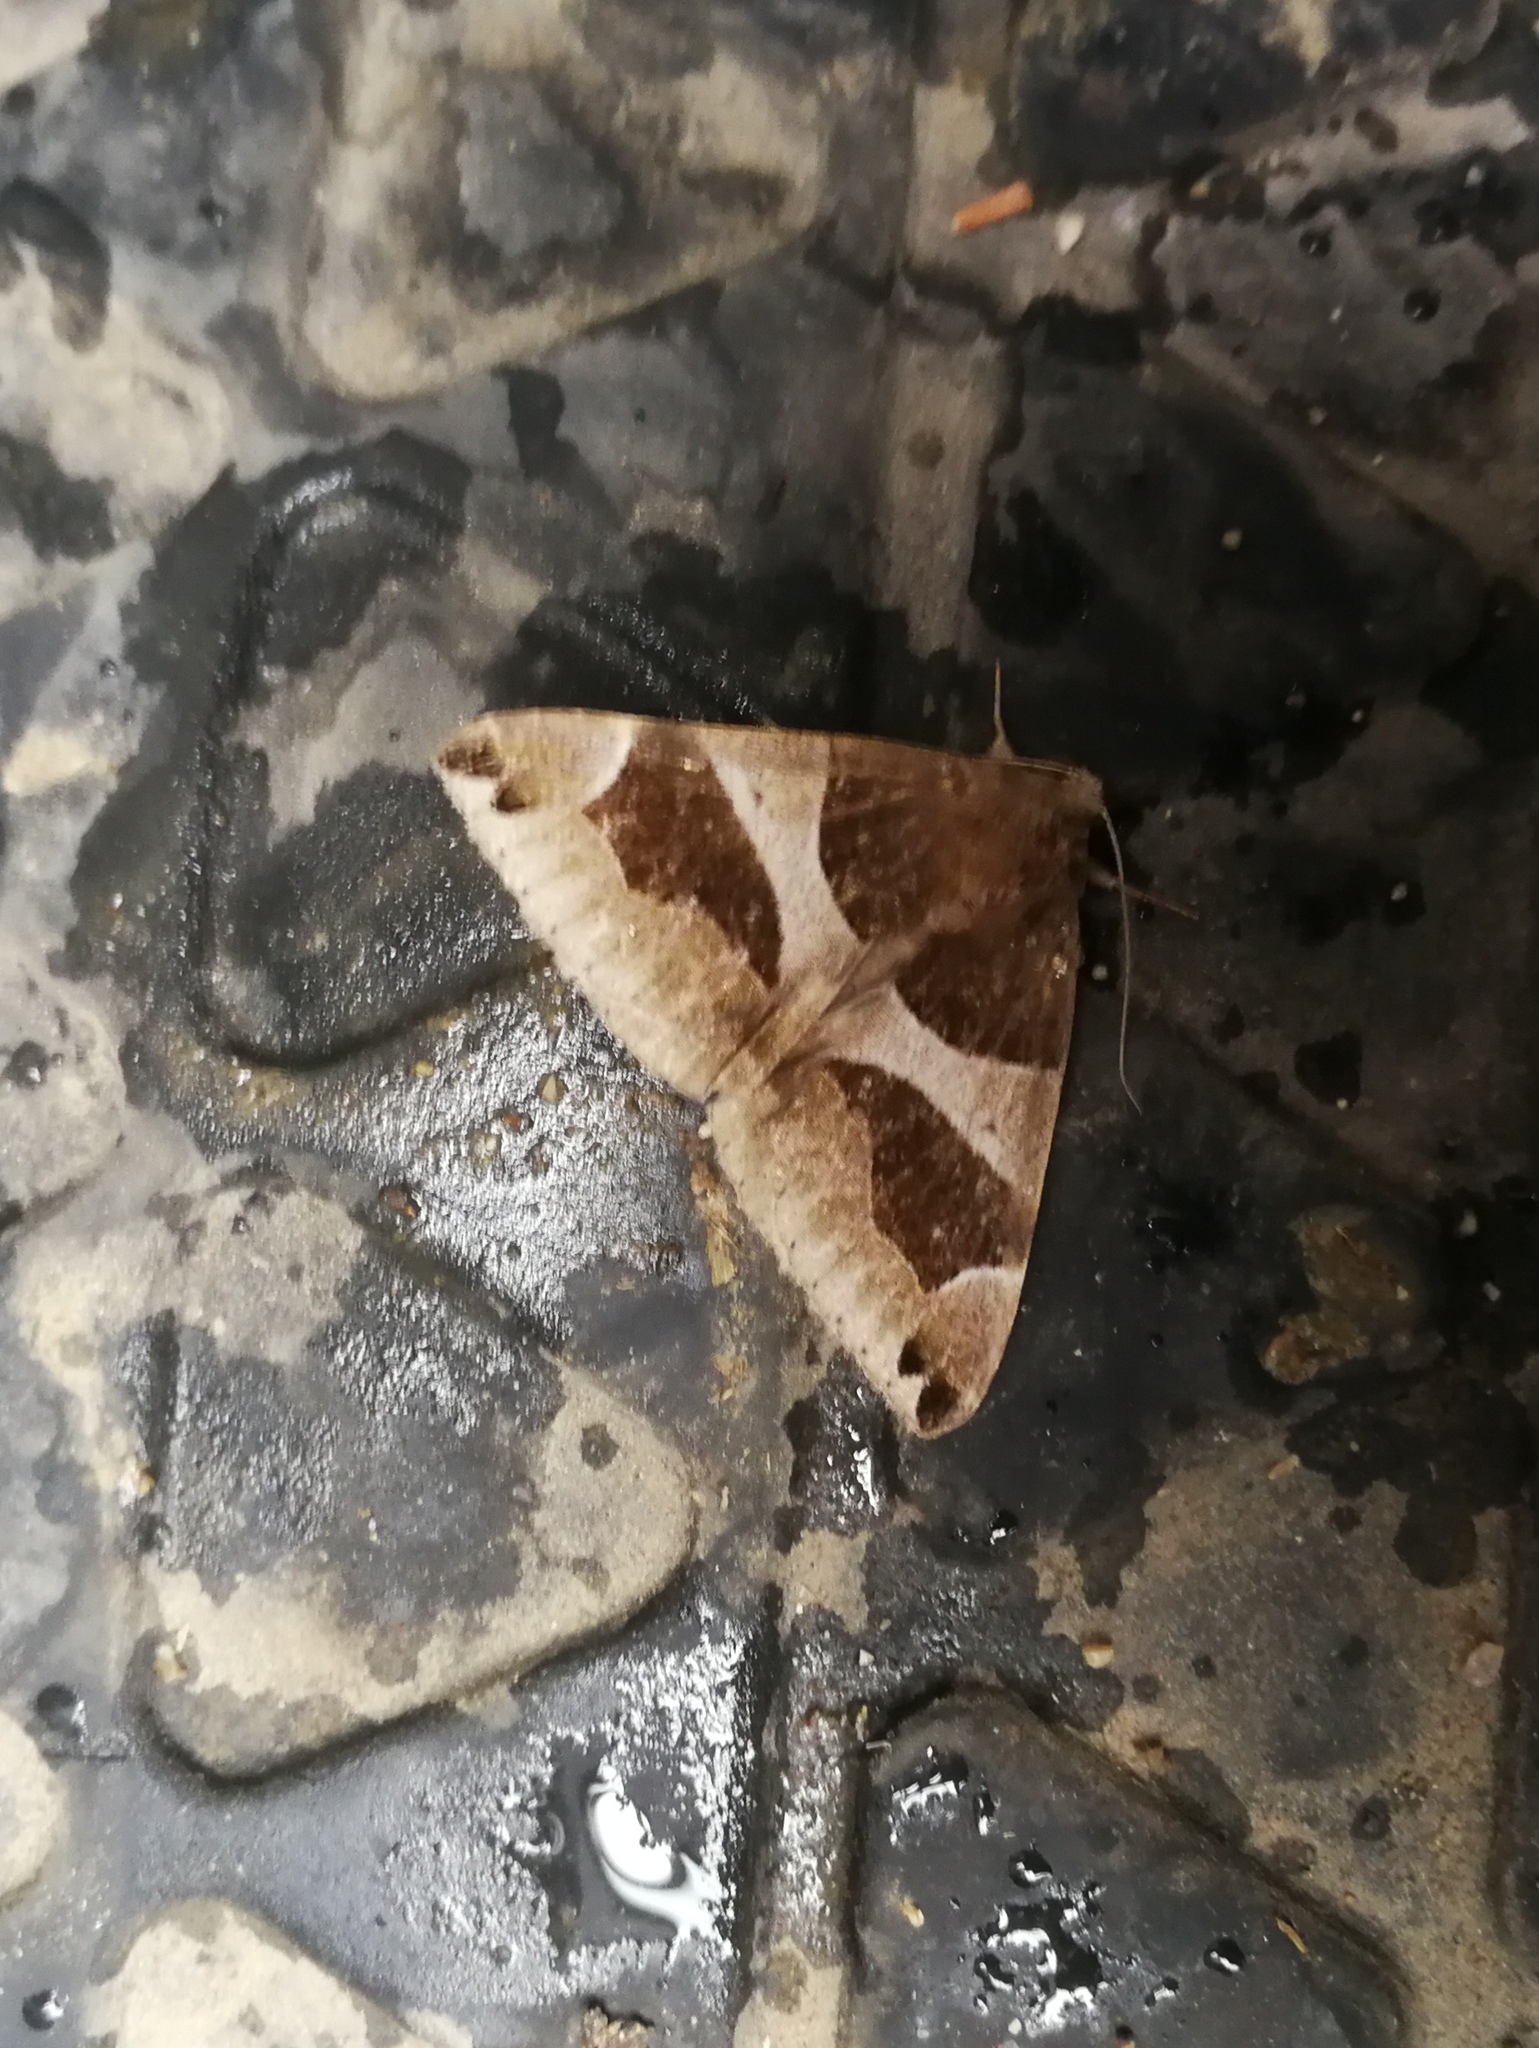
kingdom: Animalia
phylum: Arthropoda
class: Insecta
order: Lepidoptera
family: Erebidae
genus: Dysgonia
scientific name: Dysgonia algira
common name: Passenger
